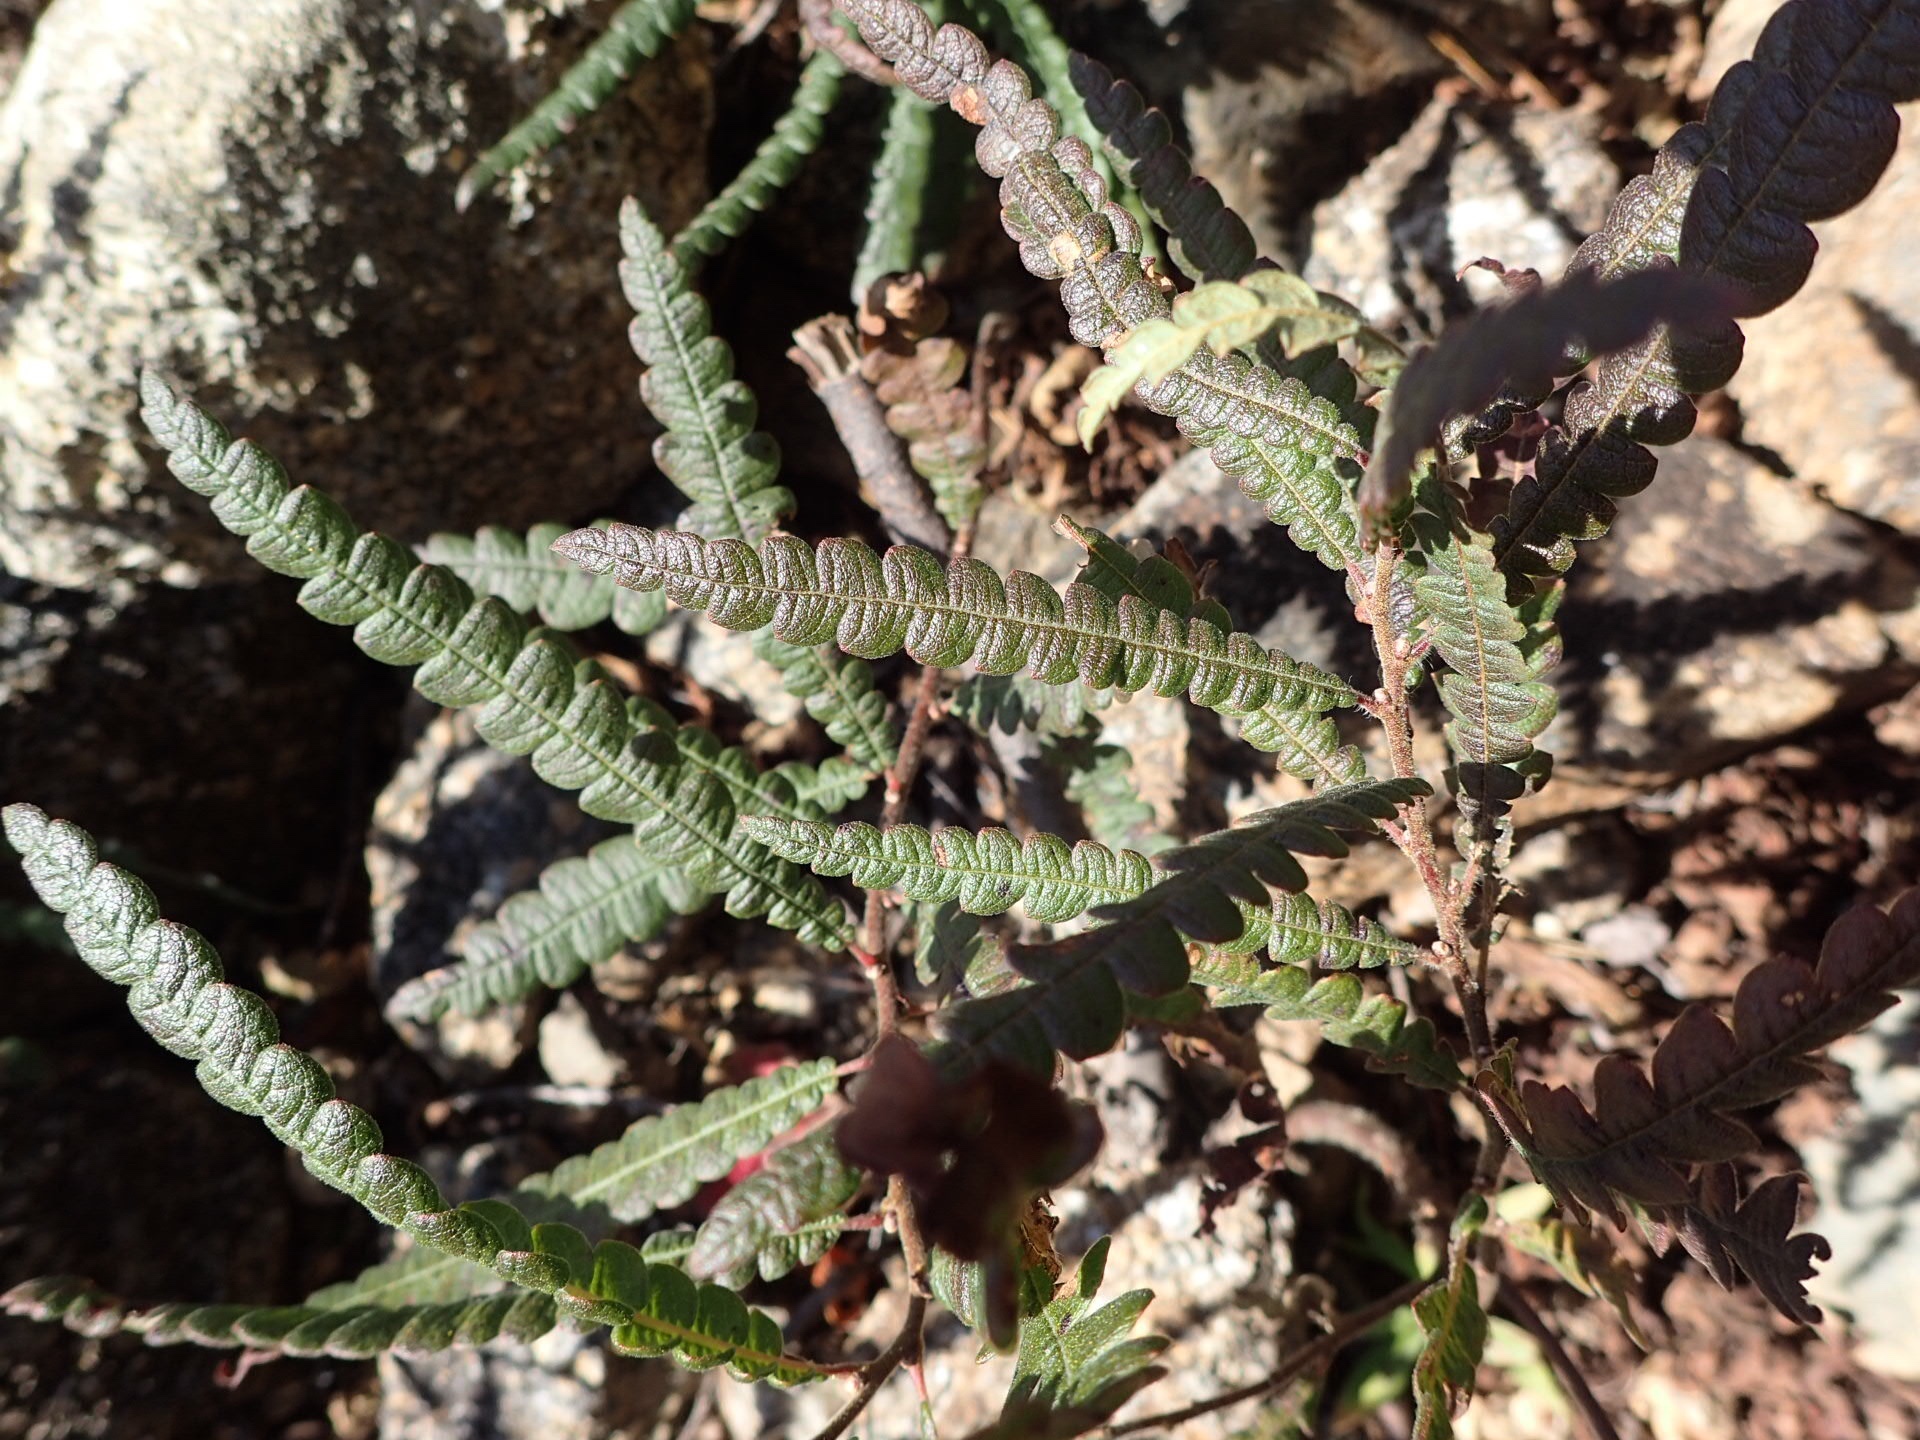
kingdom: Plantae
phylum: Tracheophyta
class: Magnoliopsida
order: Fagales
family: Myricaceae
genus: Comptonia
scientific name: Comptonia peregrina
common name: Sweet-fern
